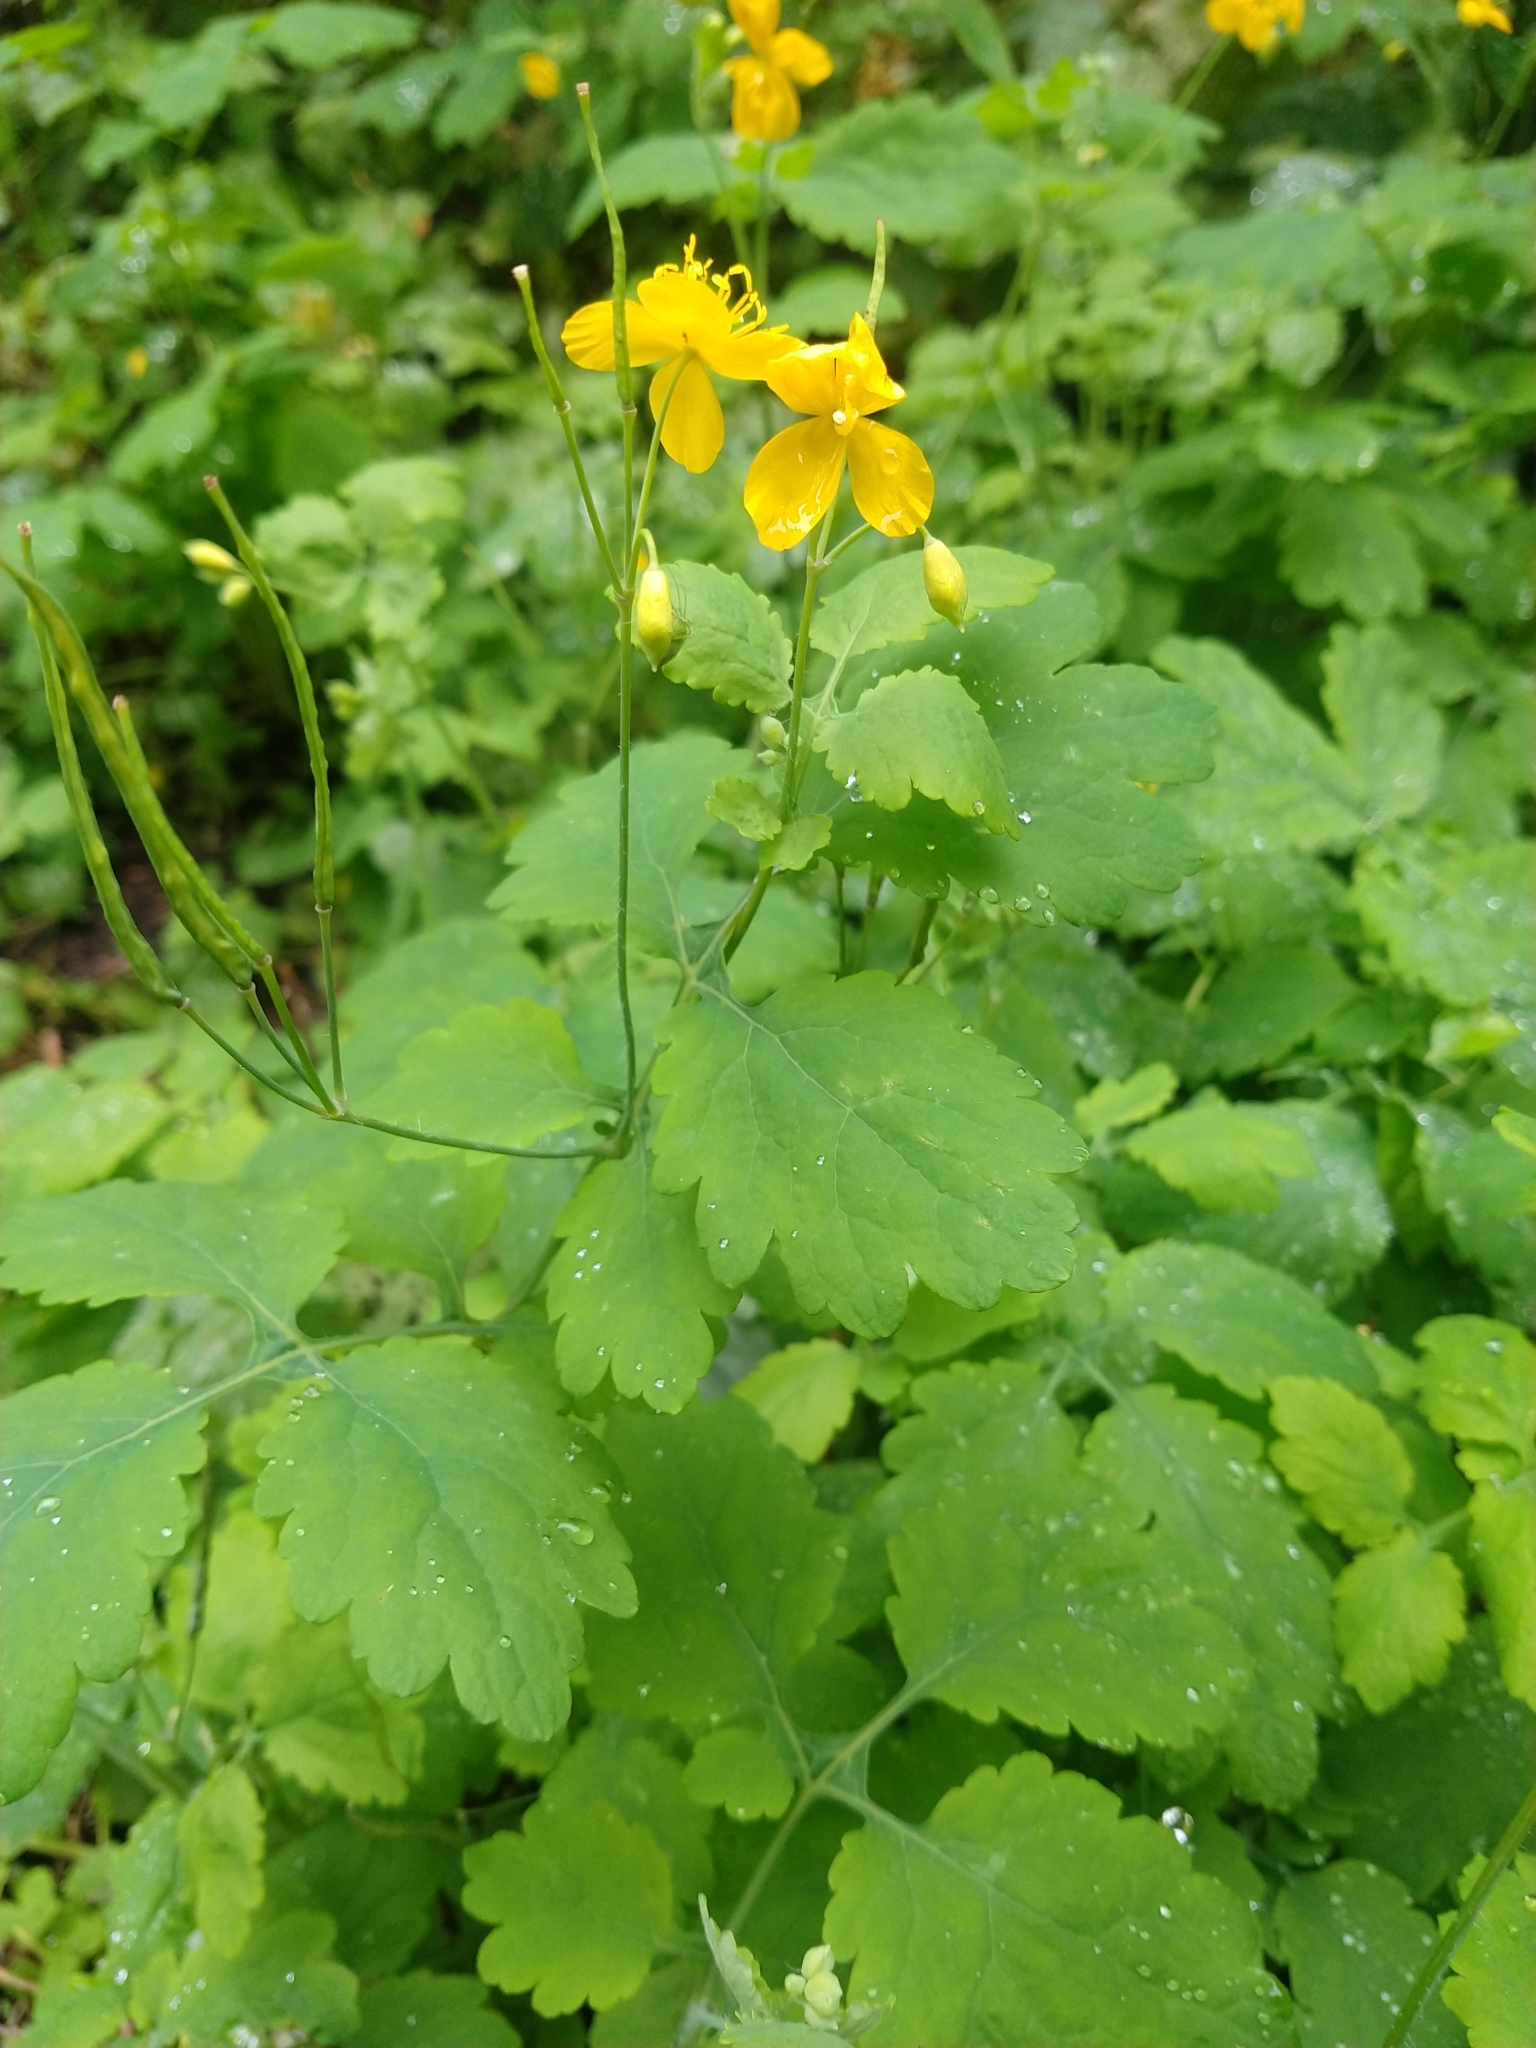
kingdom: Plantae
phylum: Tracheophyta
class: Magnoliopsida
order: Ranunculales
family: Papaveraceae
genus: Chelidonium
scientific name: Chelidonium majus
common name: Greater celandine
